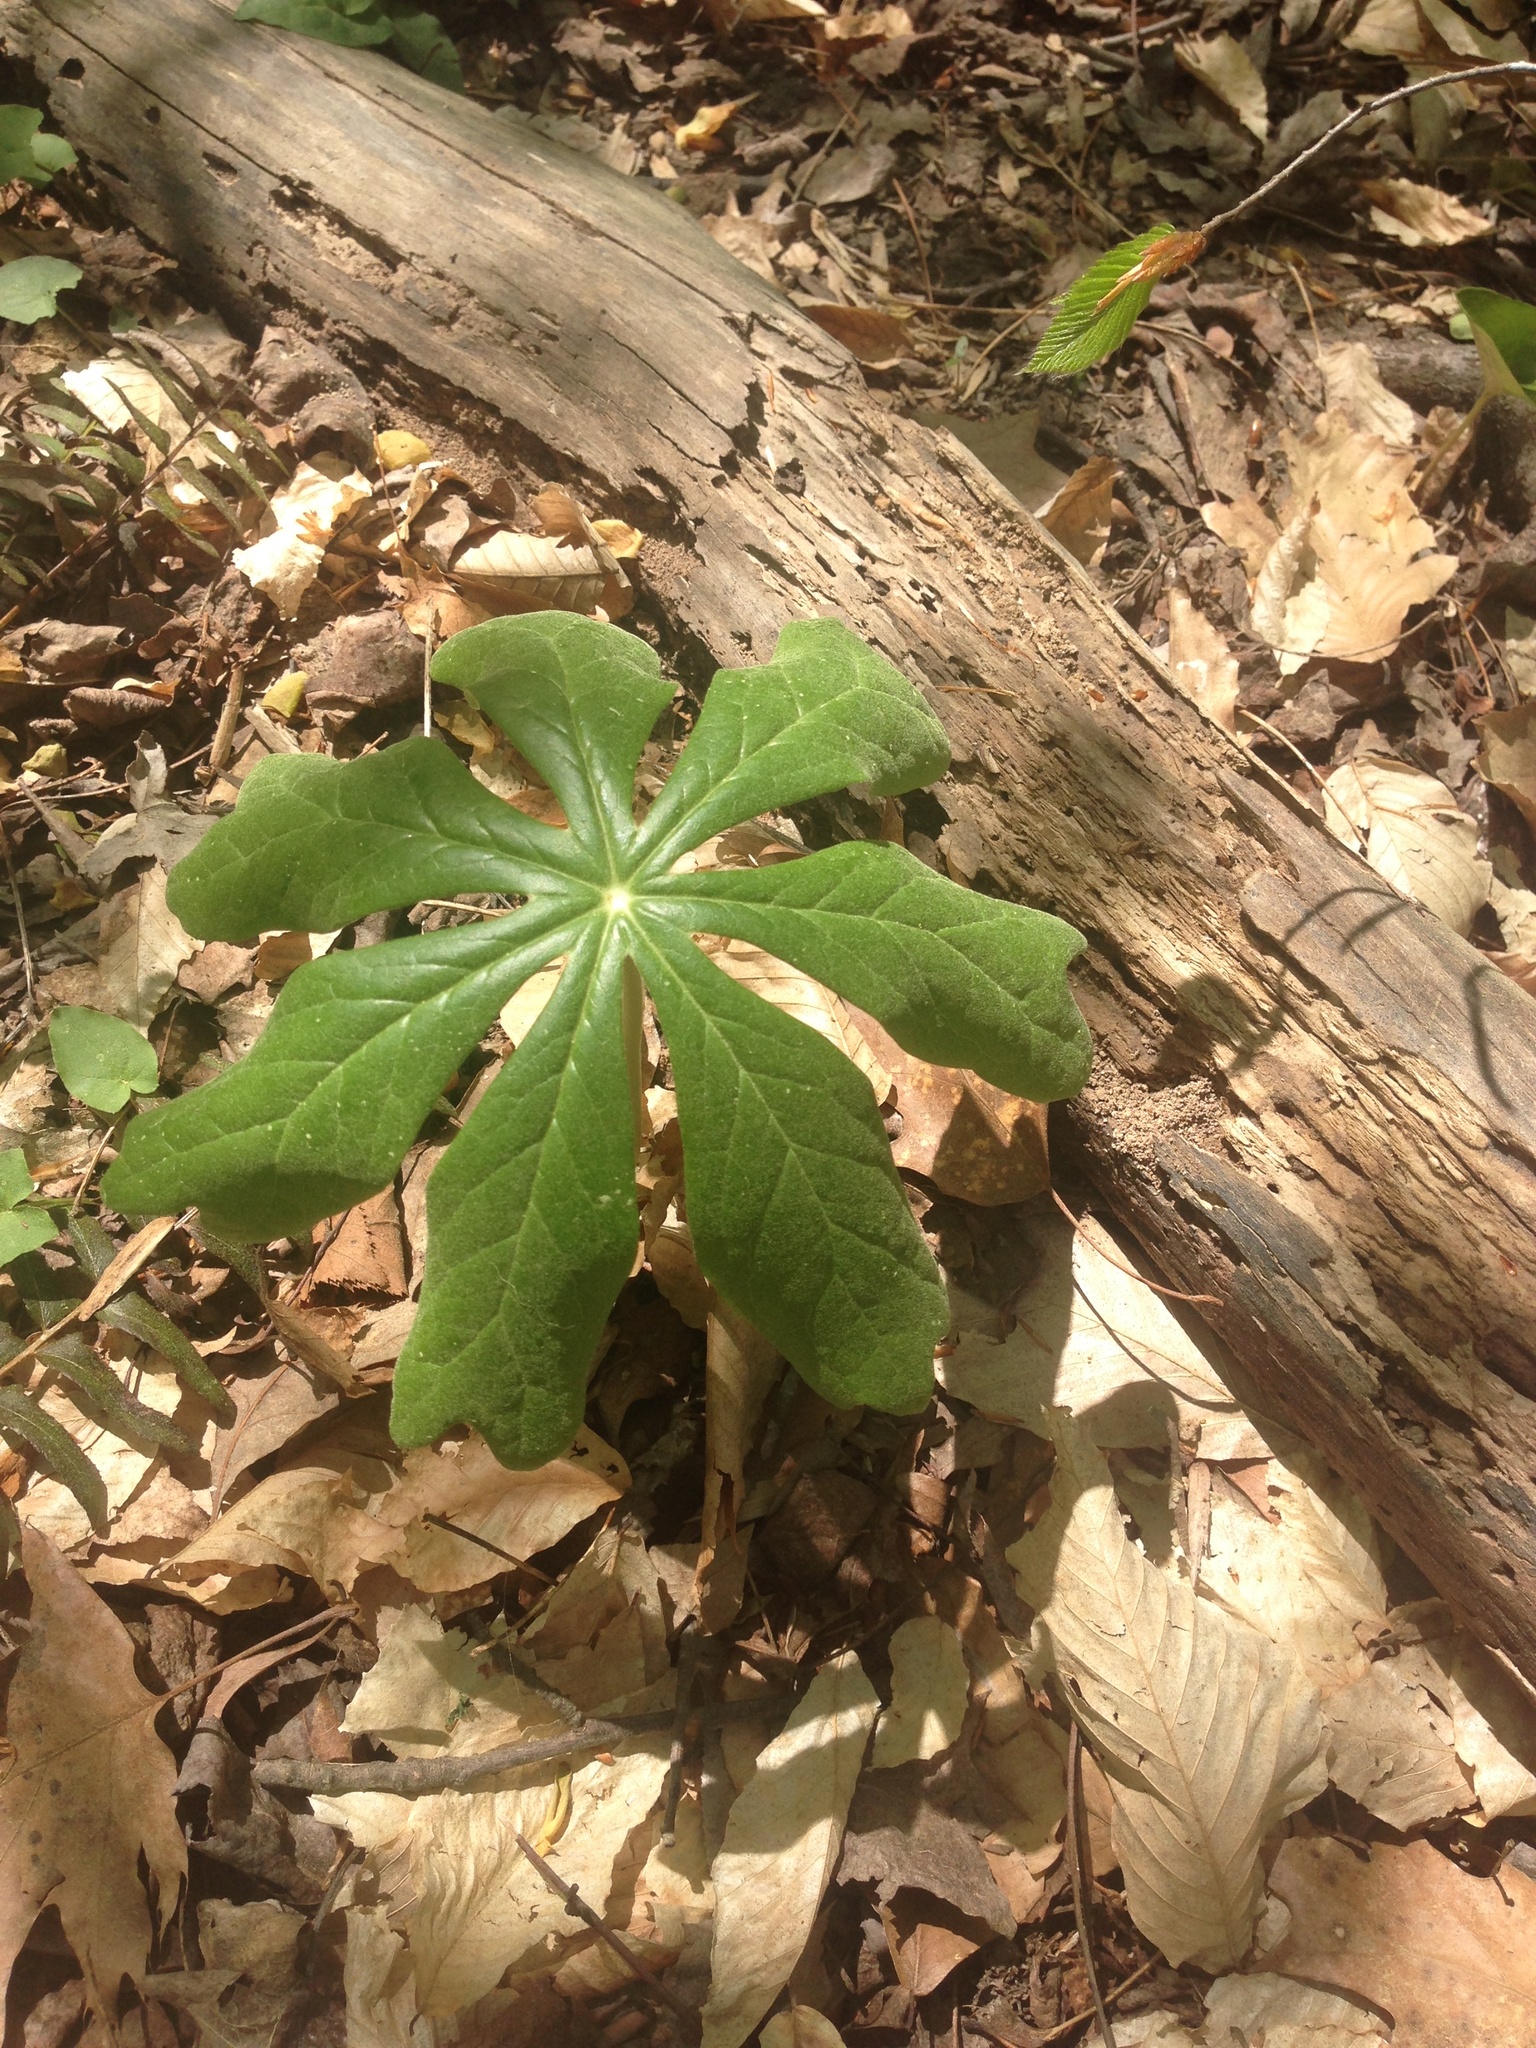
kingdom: Plantae
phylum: Tracheophyta
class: Magnoliopsida
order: Ranunculales
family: Berberidaceae
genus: Podophyllum
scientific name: Podophyllum peltatum
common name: Wild mandrake
